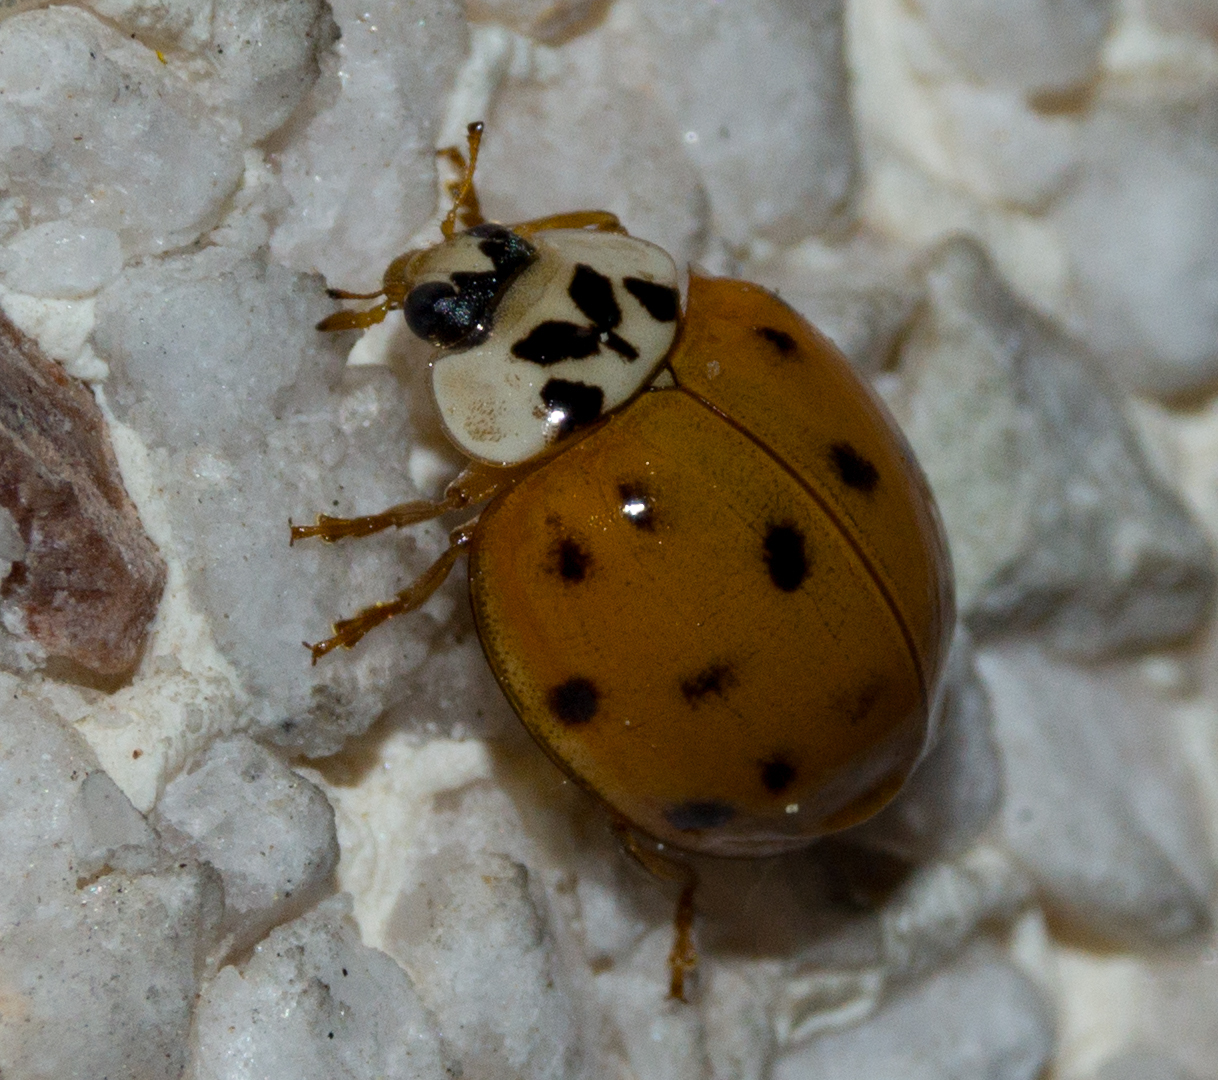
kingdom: Animalia
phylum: Arthropoda
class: Insecta
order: Coleoptera
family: Coccinellidae
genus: Harmonia
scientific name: Harmonia axyridis
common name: Harlequin ladybird
